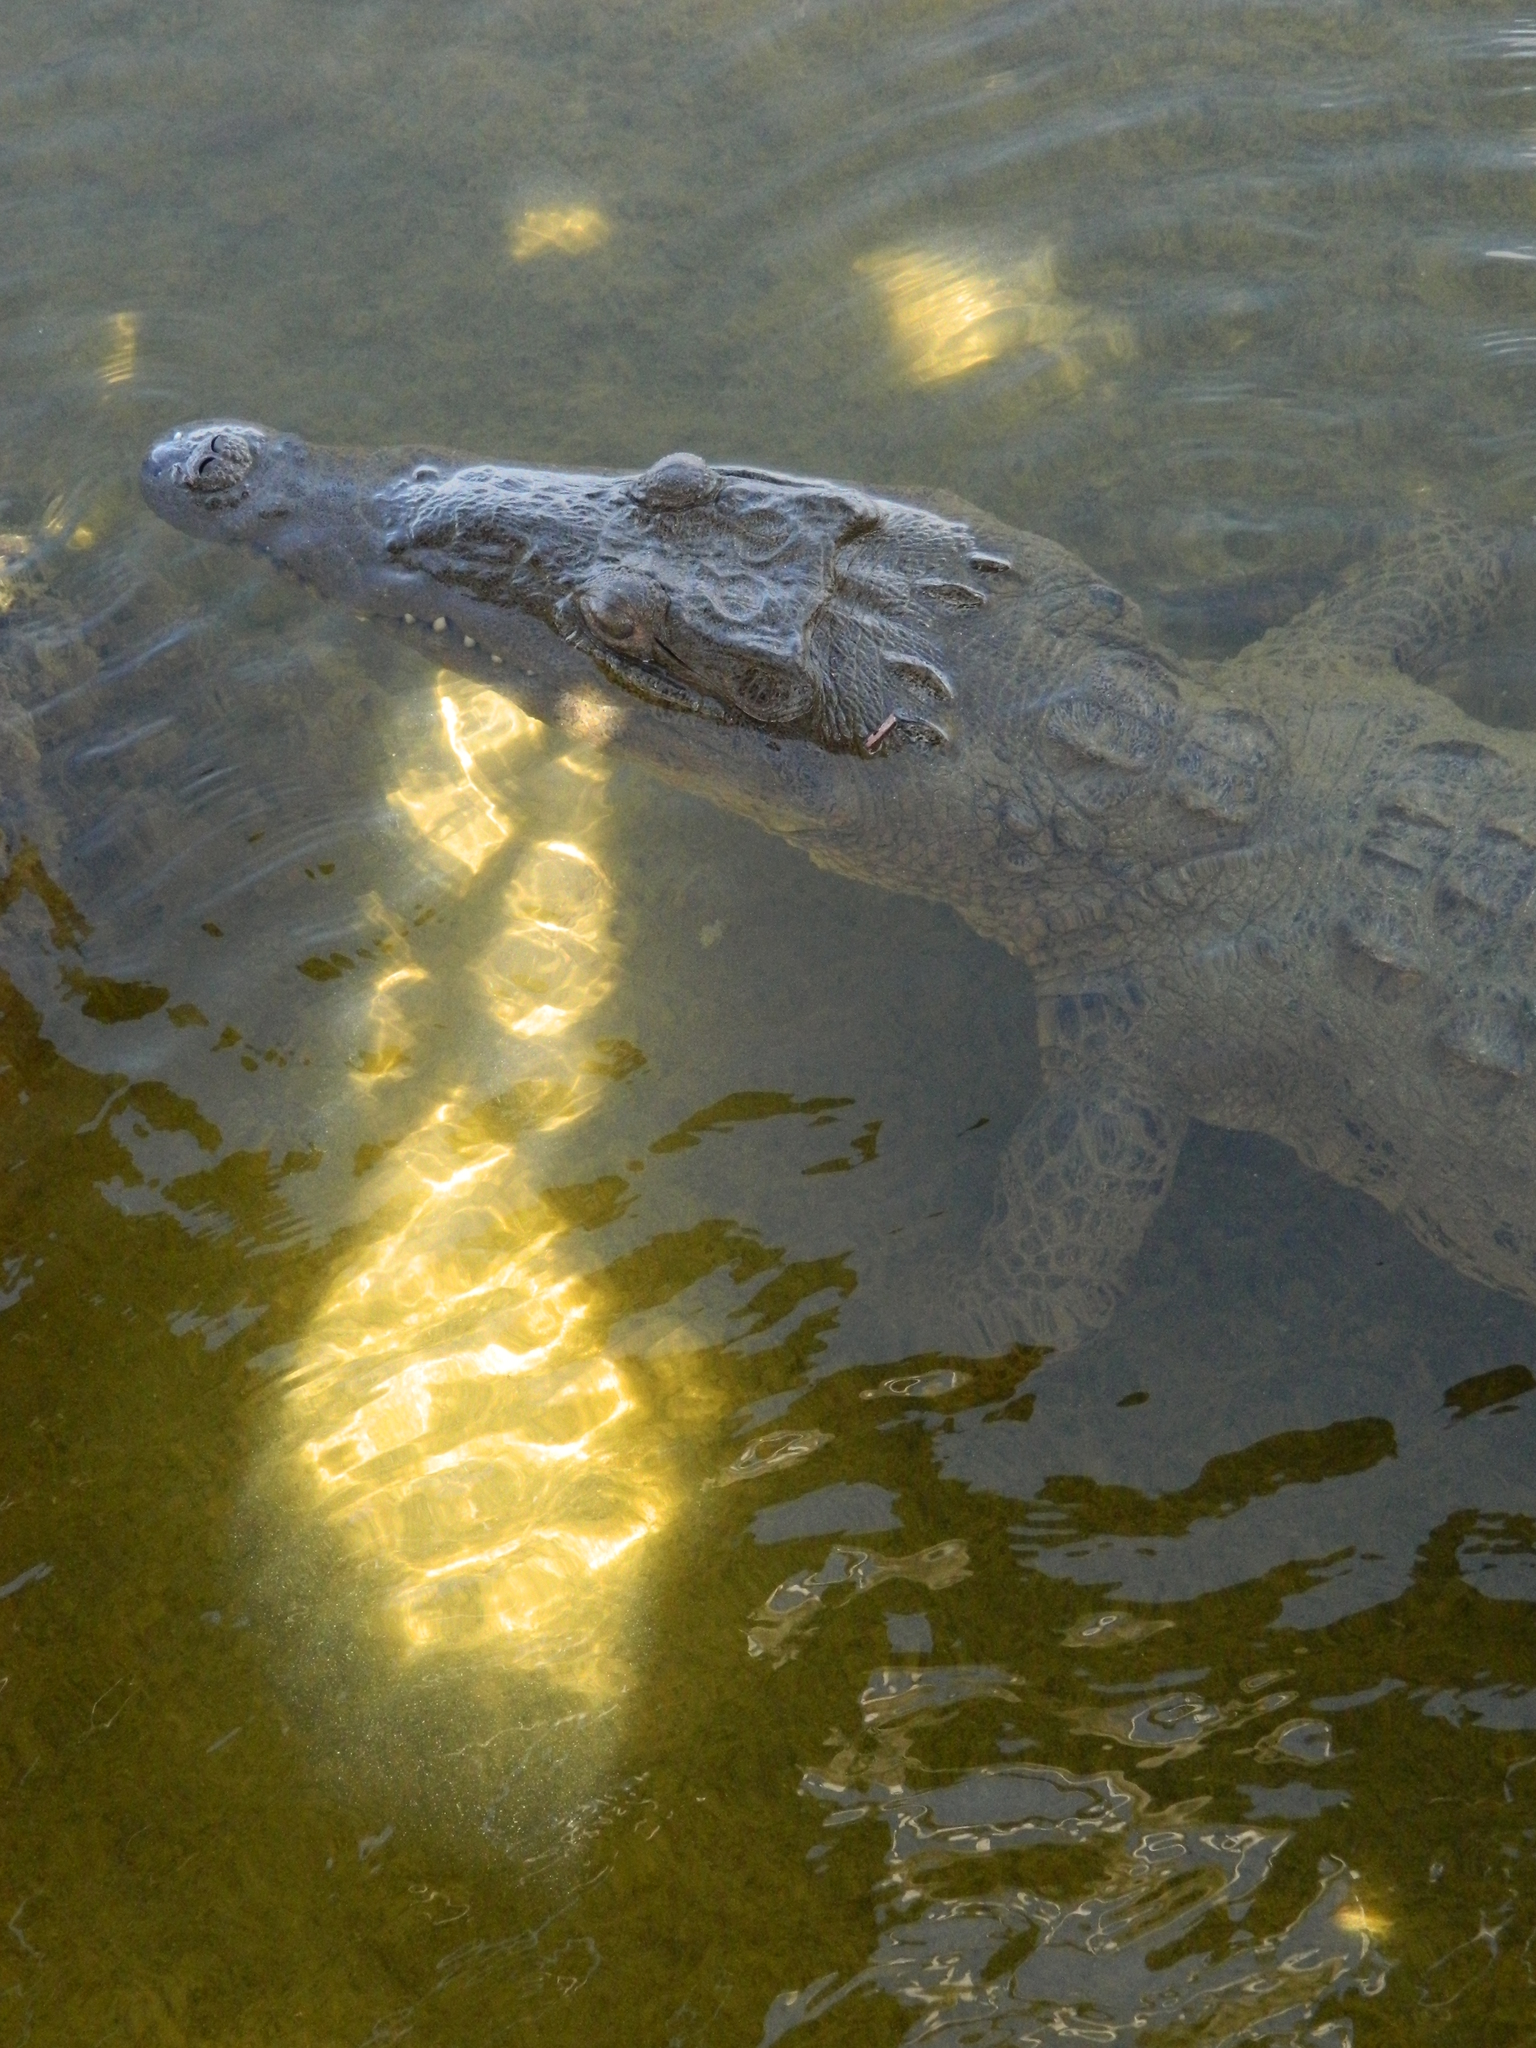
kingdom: Animalia
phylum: Chordata
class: Crocodylia
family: Crocodylidae
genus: Crocodylus
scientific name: Crocodylus acutus
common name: American crocodile
